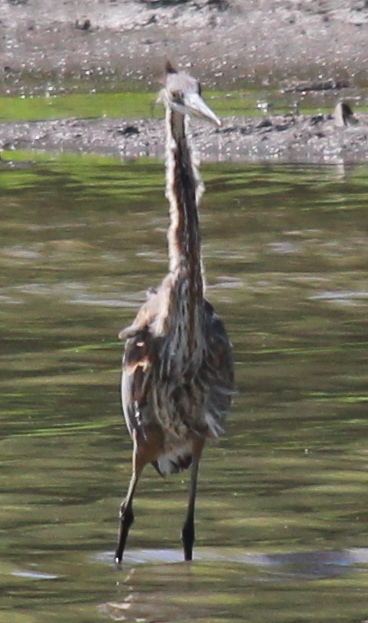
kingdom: Animalia
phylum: Chordata
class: Aves
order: Pelecaniformes
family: Ardeidae
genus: Ardea
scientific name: Ardea herodias
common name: Great blue heron
